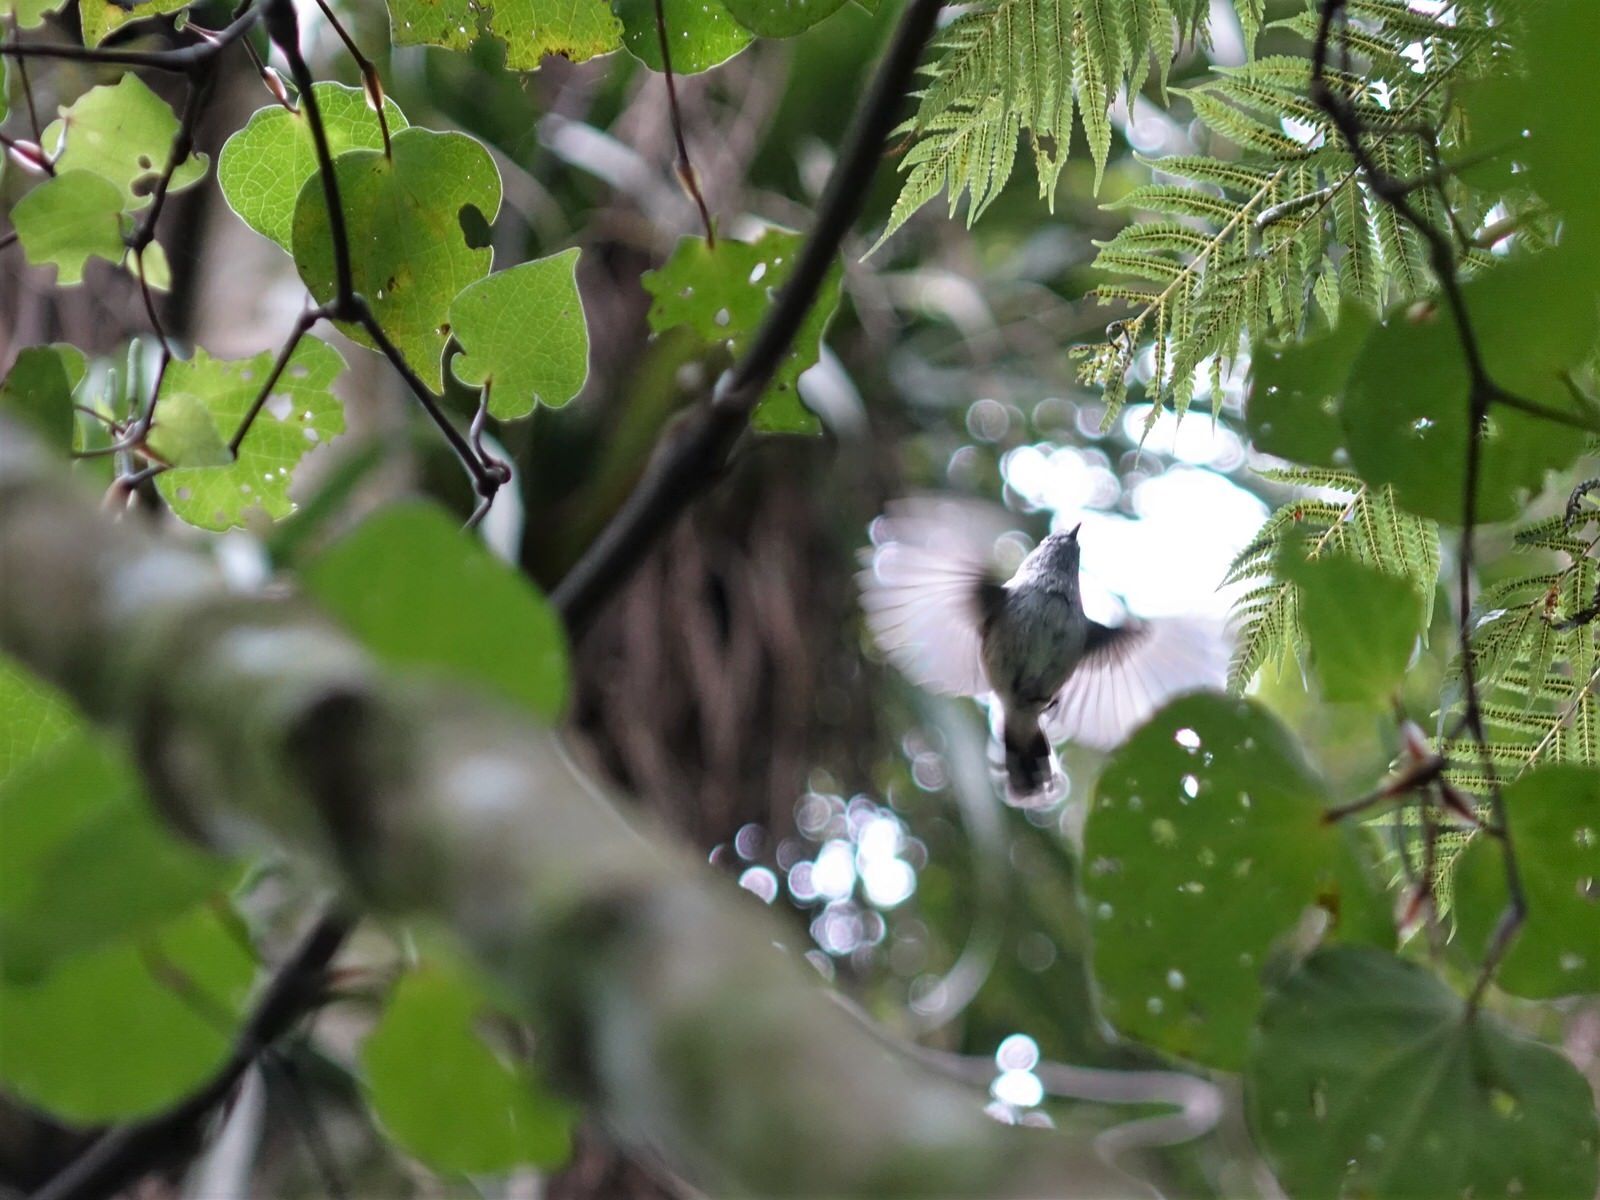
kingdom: Animalia
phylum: Chordata
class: Aves
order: Passeriformes
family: Acanthizidae
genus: Gerygone
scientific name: Gerygone igata
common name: Grey gerygone
